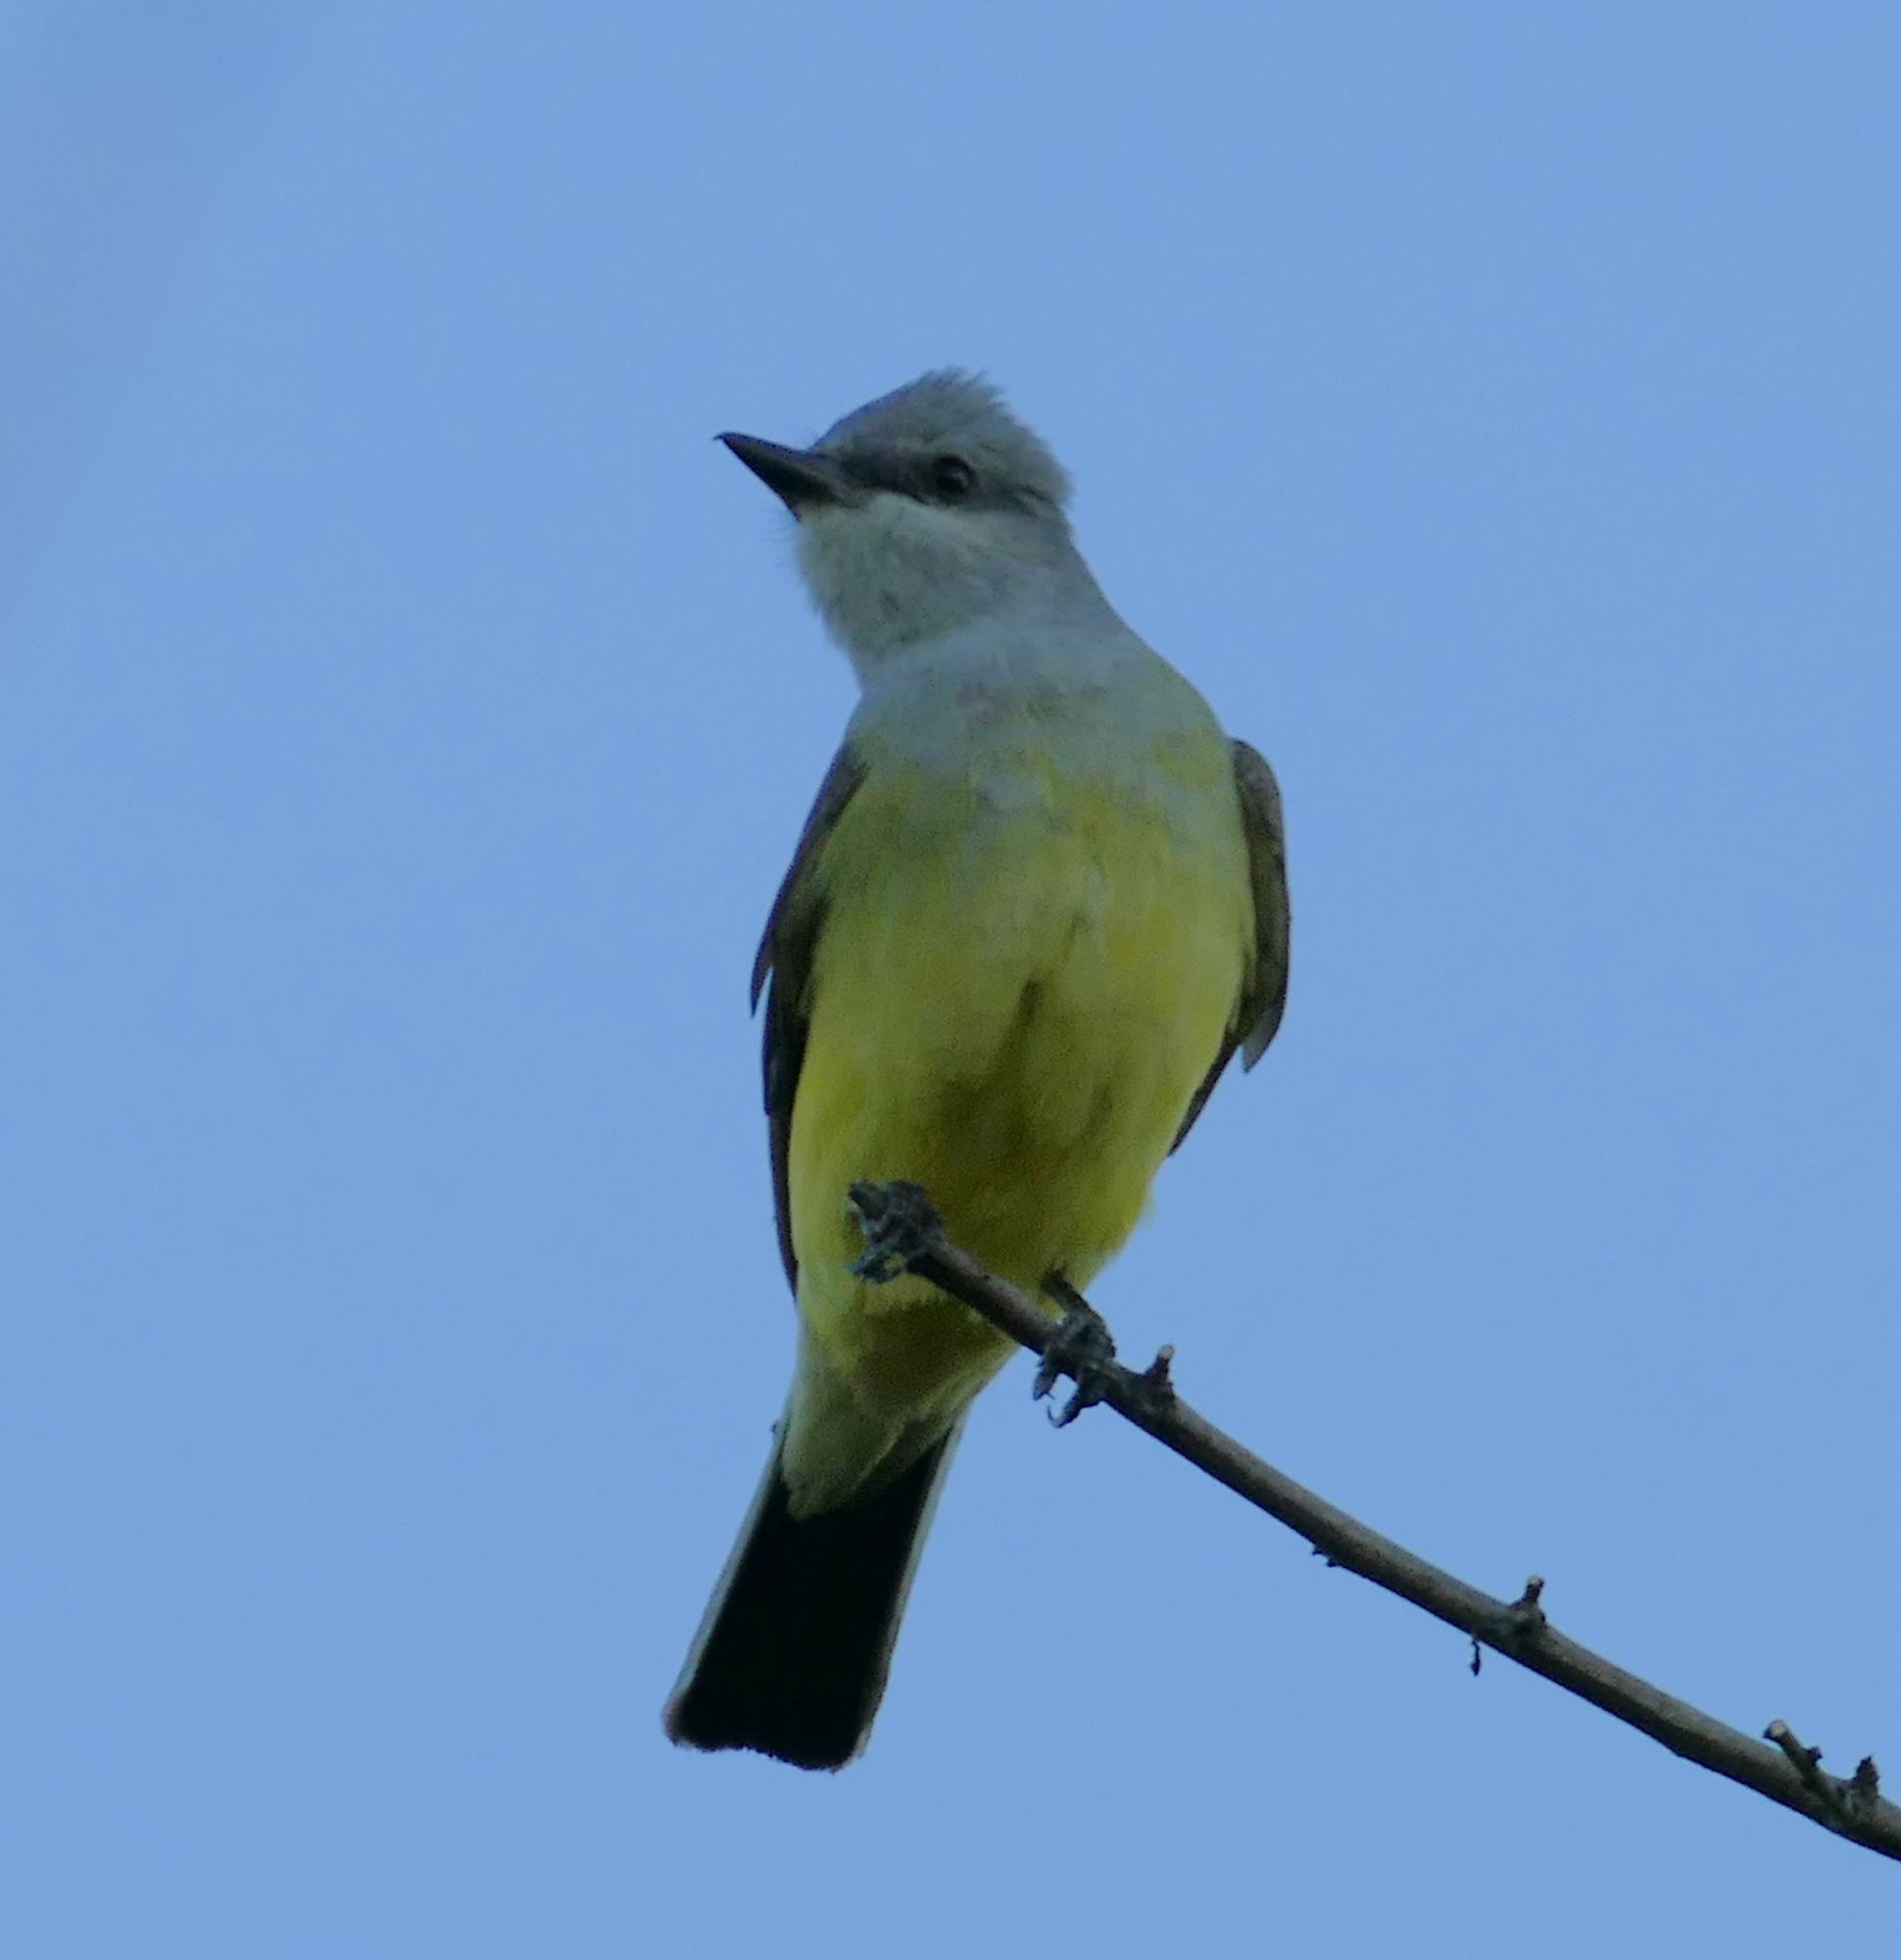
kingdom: Animalia
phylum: Chordata
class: Aves
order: Passeriformes
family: Tyrannidae
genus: Tyrannus
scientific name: Tyrannus verticalis
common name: Western kingbird
